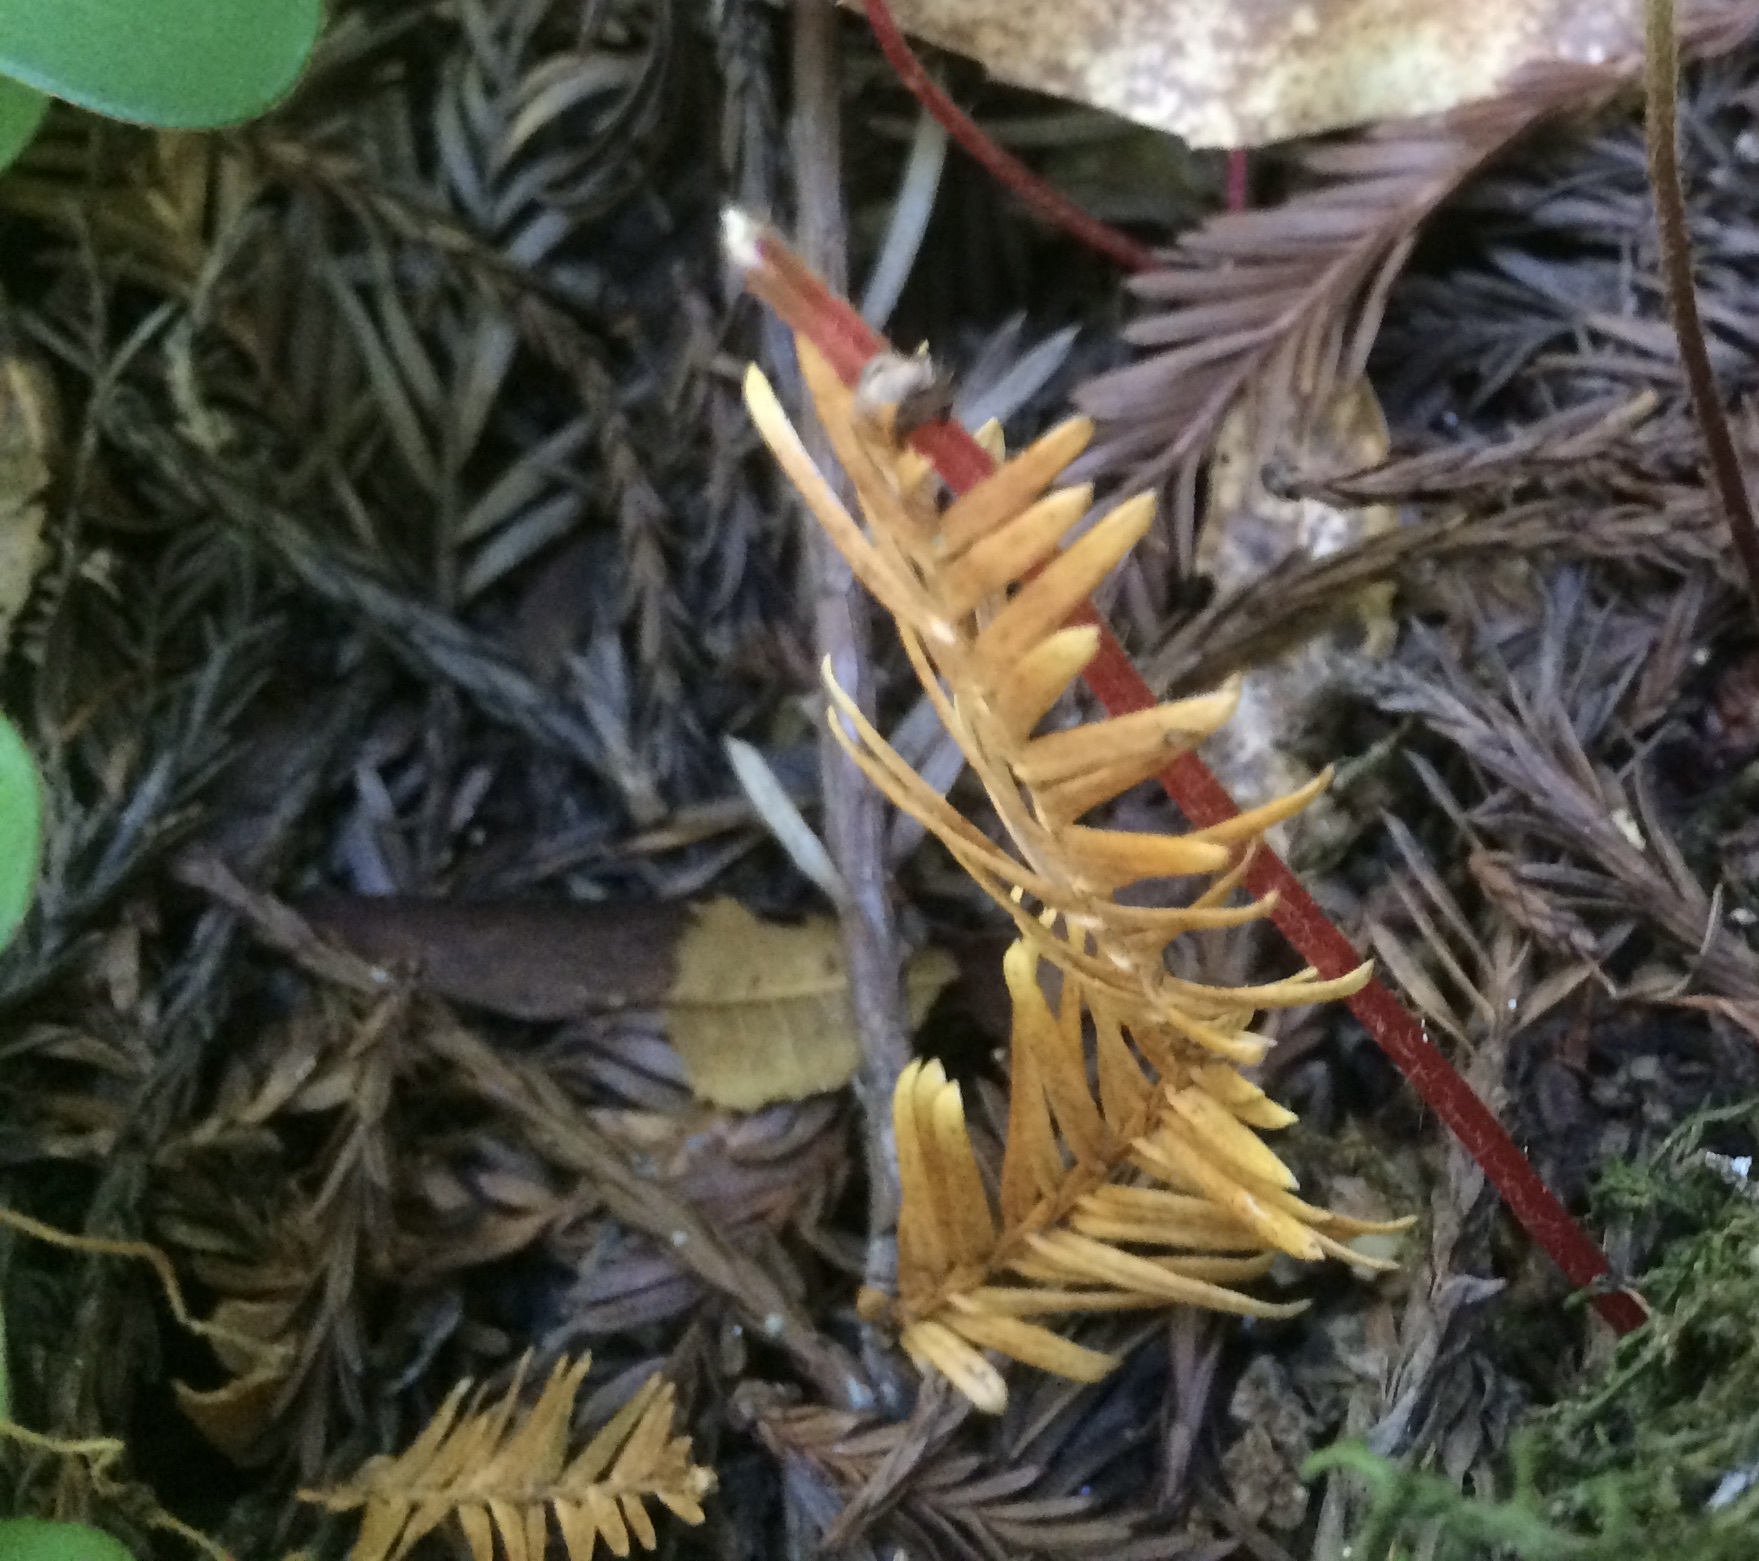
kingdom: Plantae
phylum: Tracheophyta
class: Pinopsida
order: Pinales
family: Cupressaceae
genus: Sequoia
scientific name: Sequoia sempervirens
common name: Coast redwood
